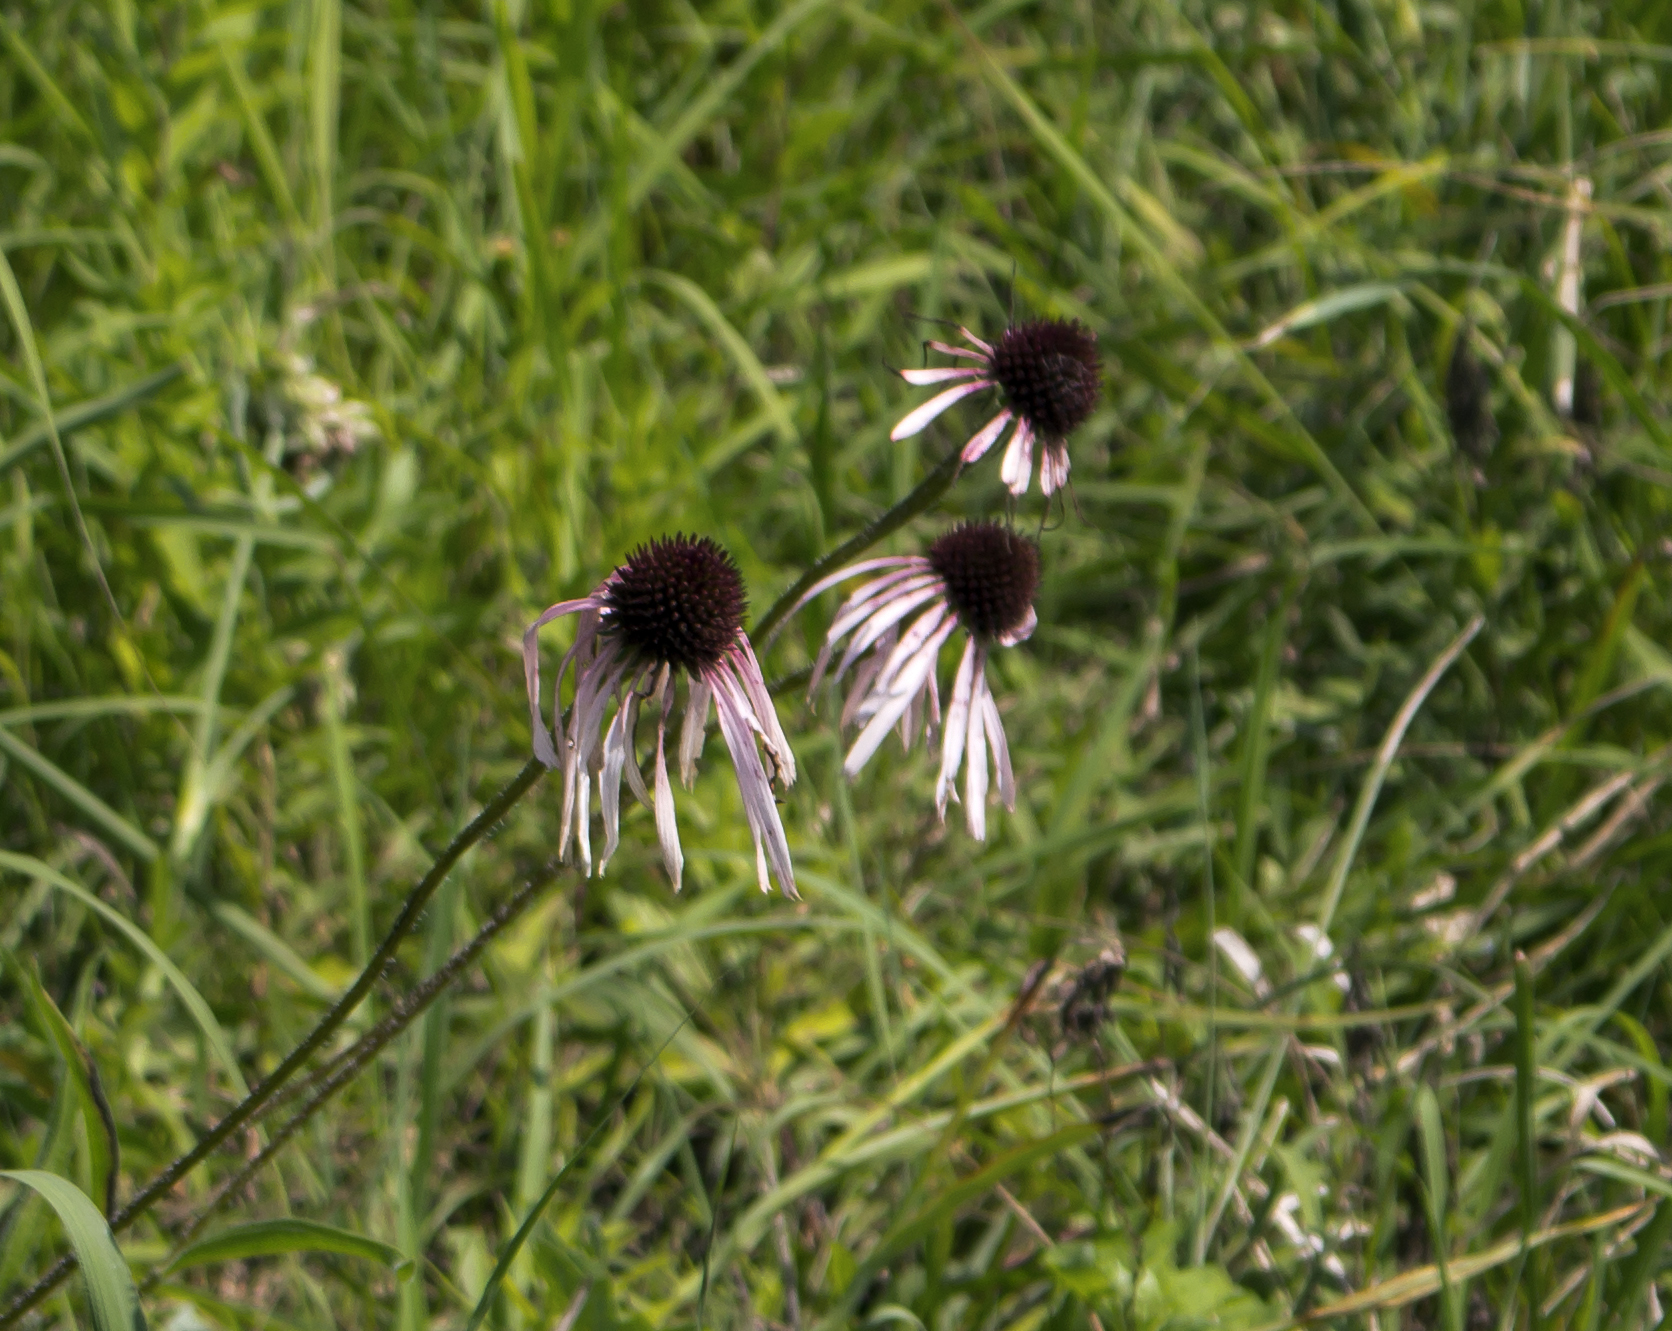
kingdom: Plantae
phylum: Tracheophyta
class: Magnoliopsida
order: Asterales
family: Asteraceae
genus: Echinacea
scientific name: Echinacea pallida
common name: Pale echinacea
